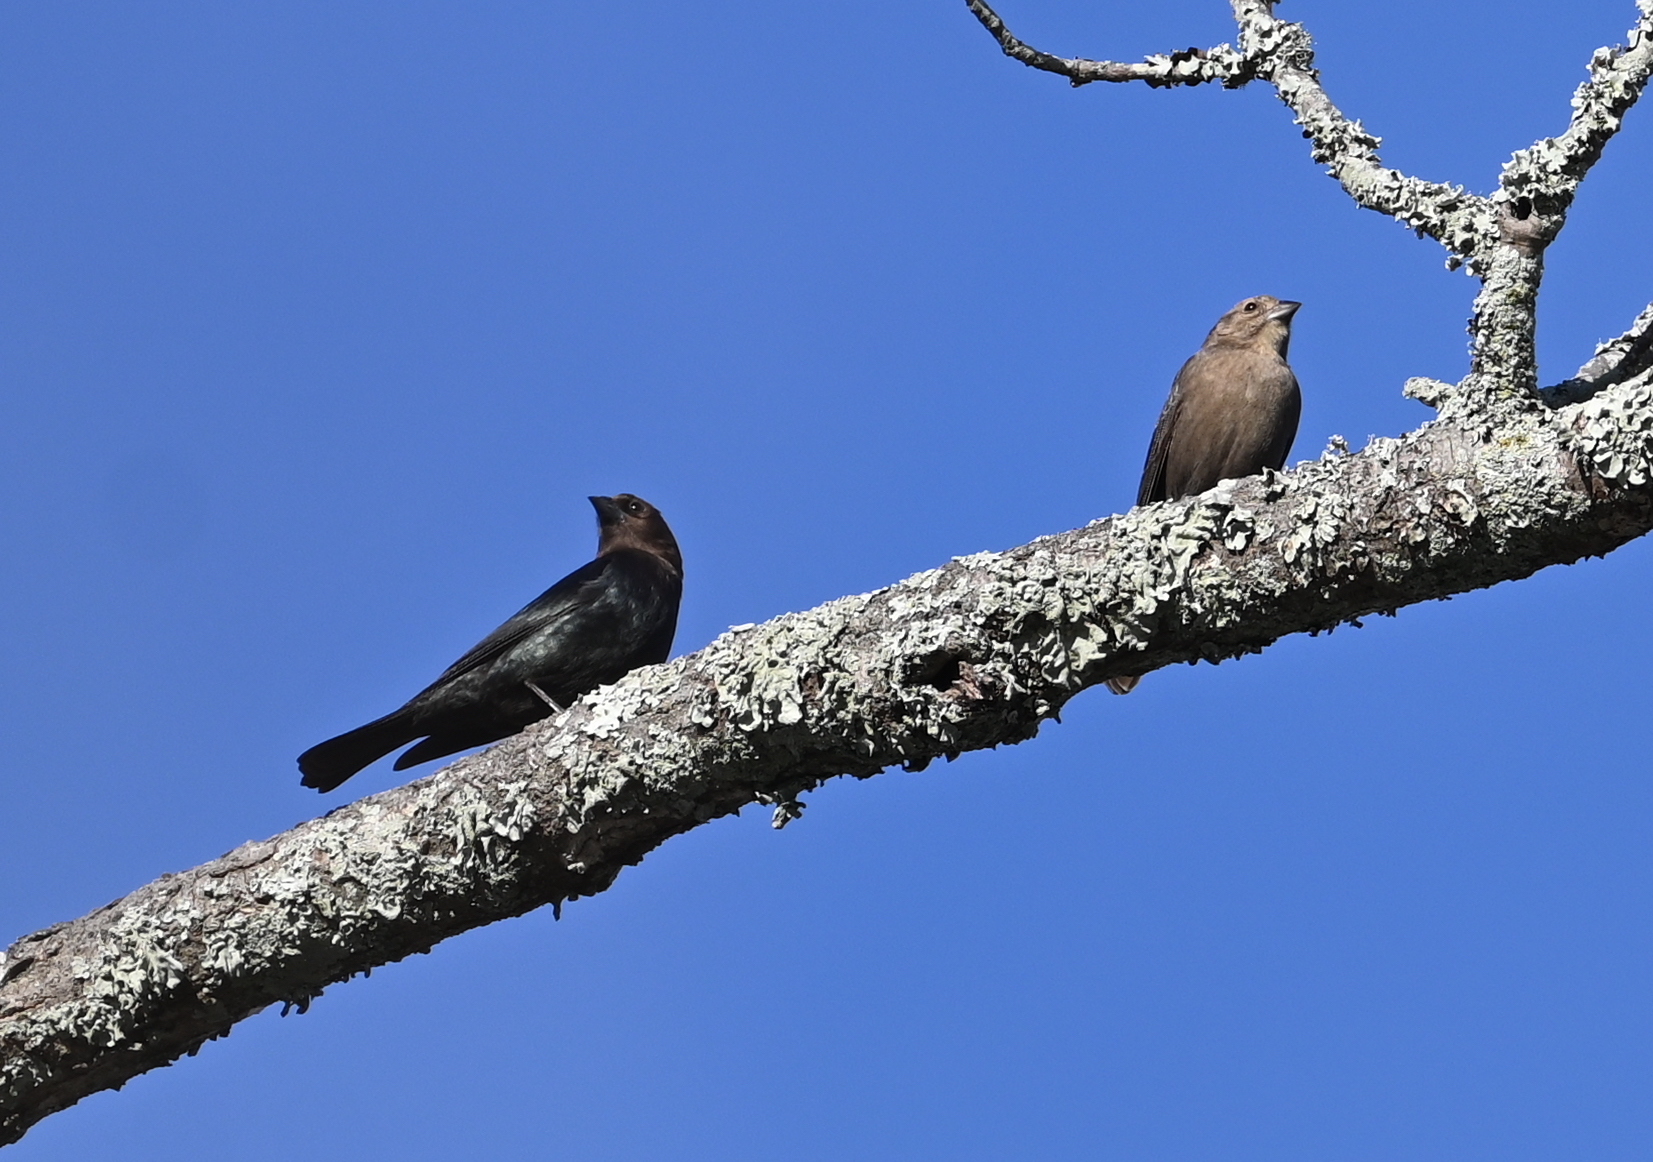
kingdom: Animalia
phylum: Chordata
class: Aves
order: Passeriformes
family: Icteridae
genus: Molothrus
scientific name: Molothrus ater
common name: Brown-headed cowbird
